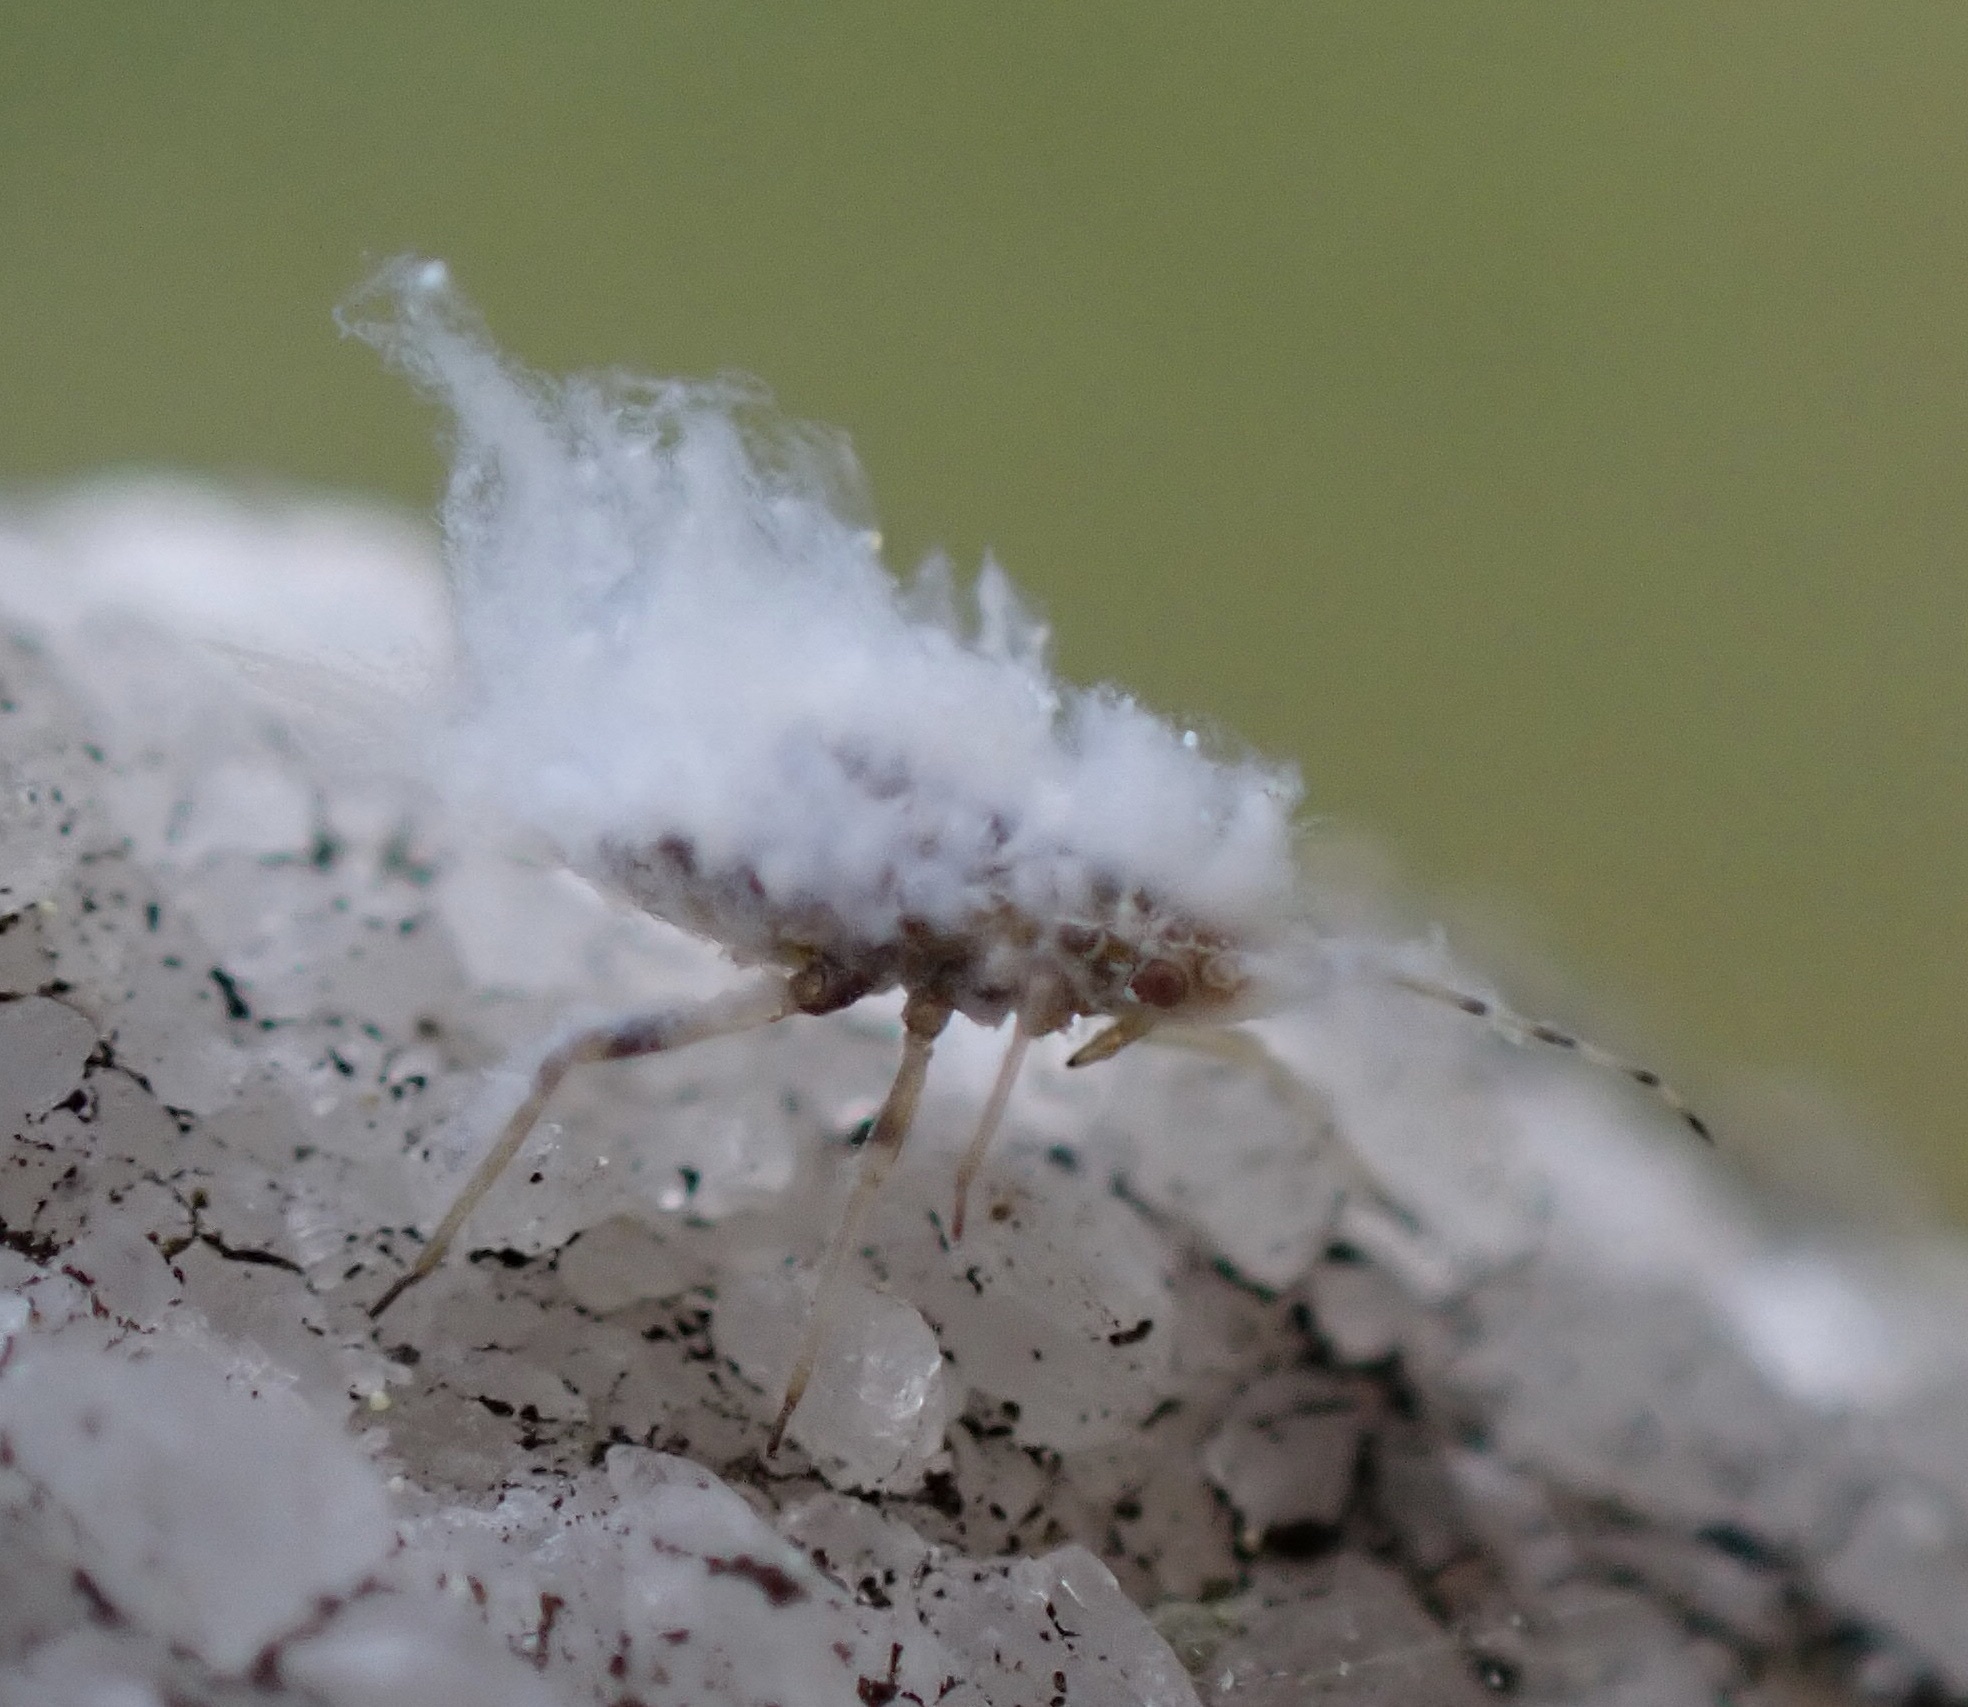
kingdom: Animalia
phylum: Arthropoda
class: Insecta
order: Hemiptera
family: Aphididae
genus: Shivaphis
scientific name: Shivaphis celti
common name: Asian wooly hackberry aphid
